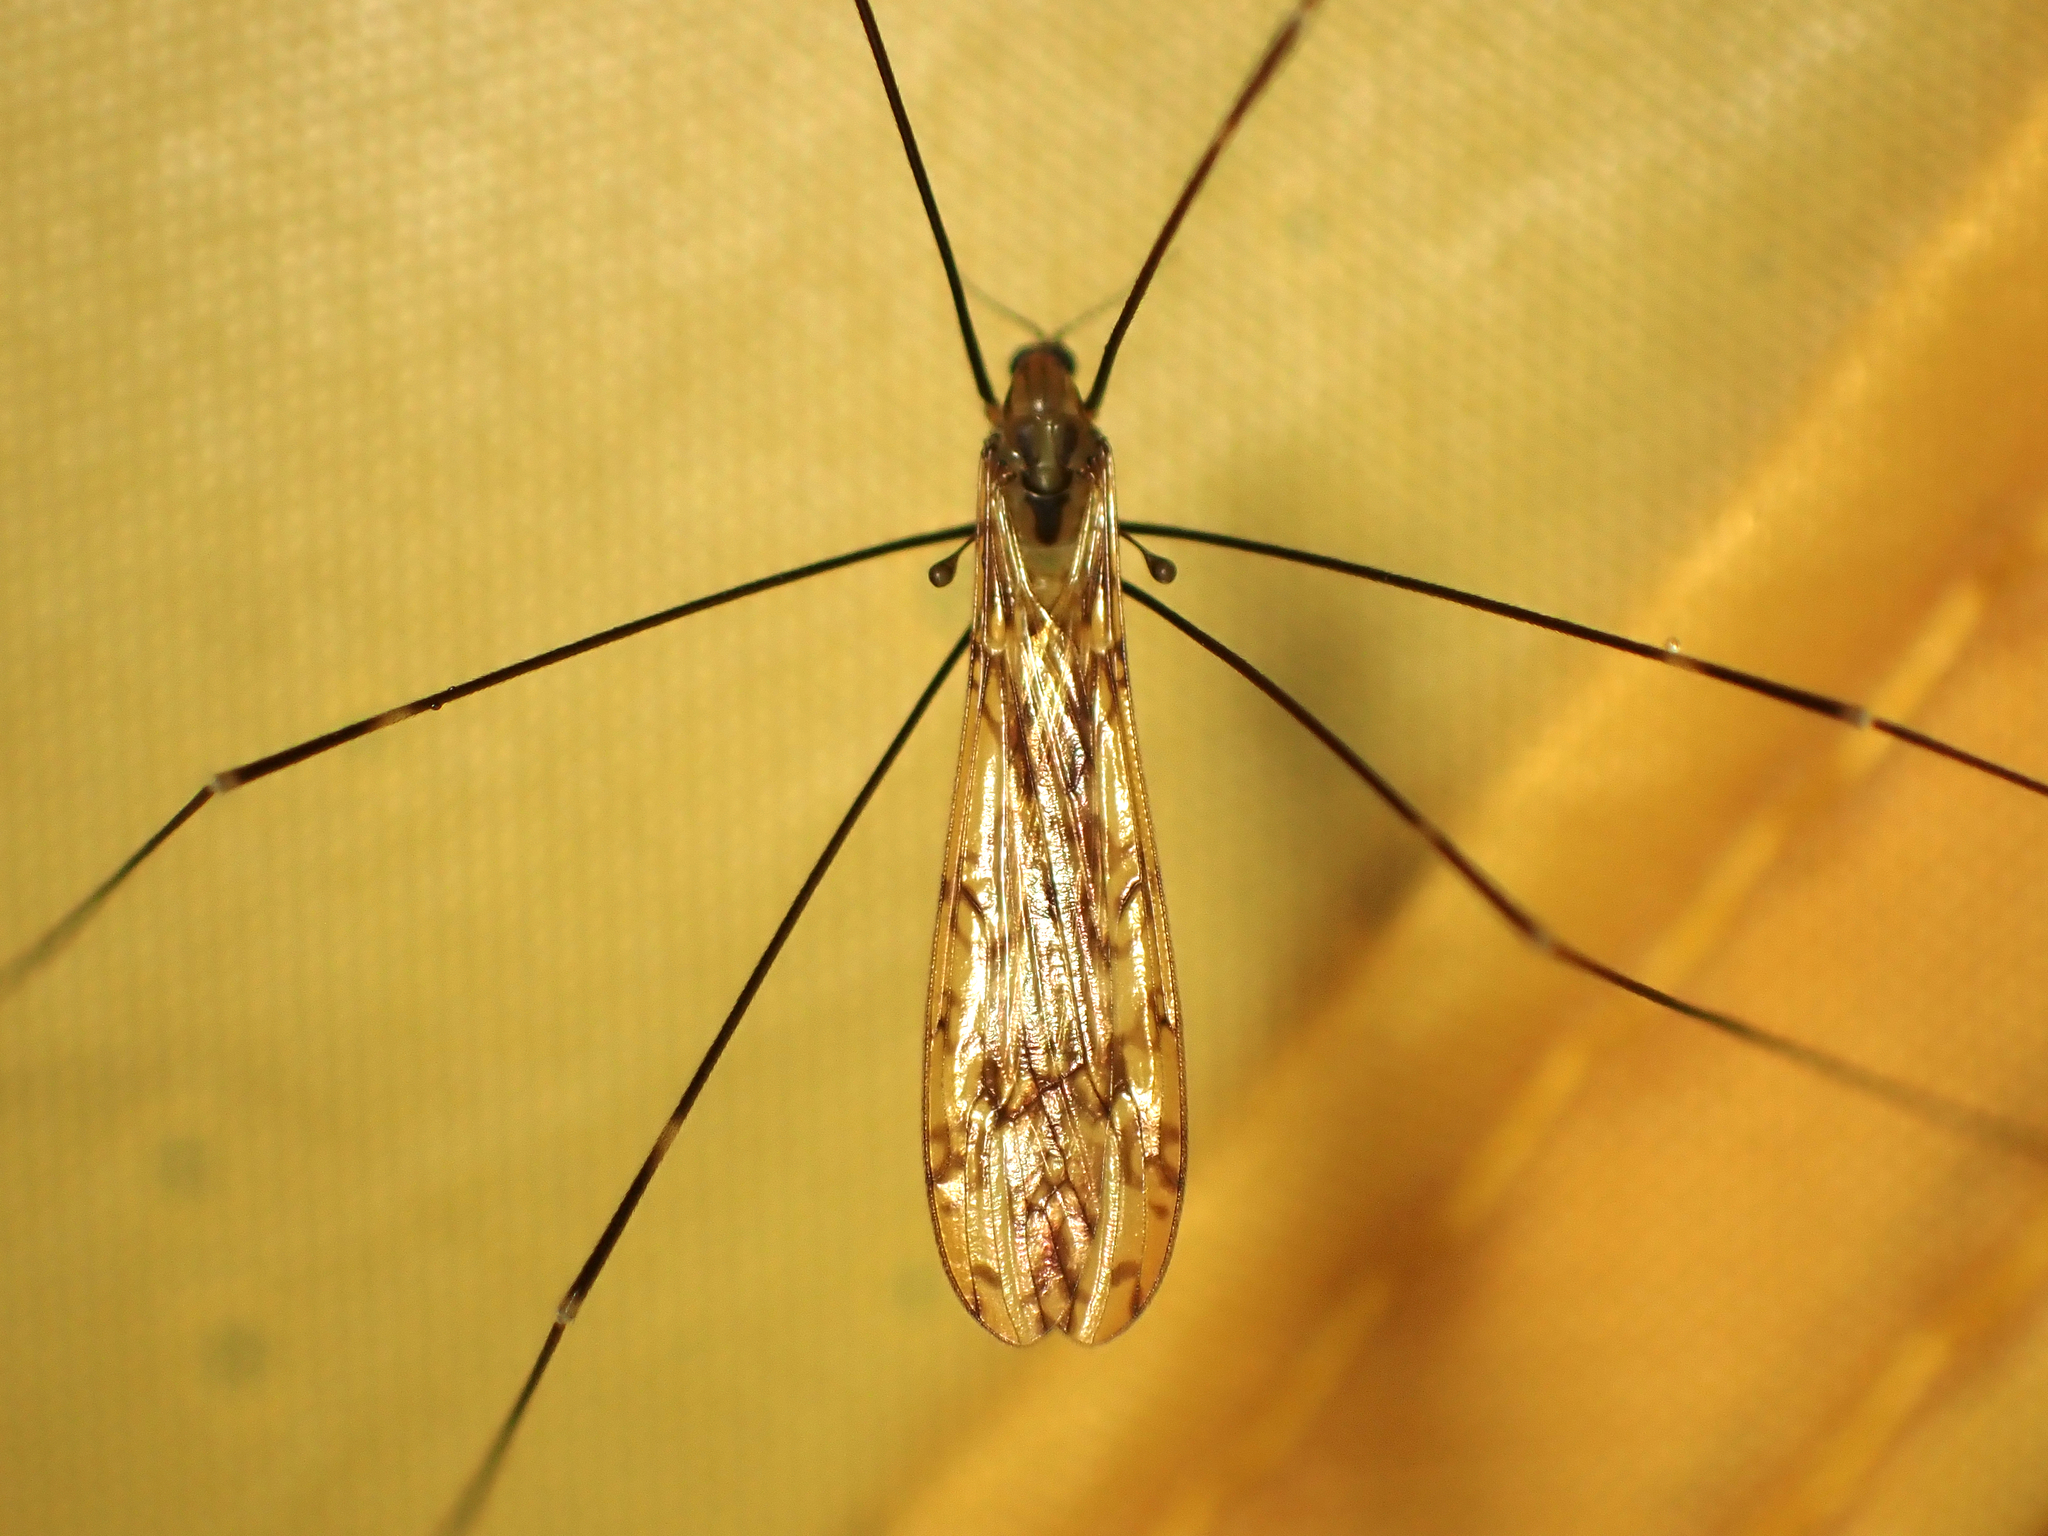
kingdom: Animalia
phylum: Arthropoda
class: Insecta
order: Diptera
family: Limoniidae
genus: Discobola
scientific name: Discobola tessellata
